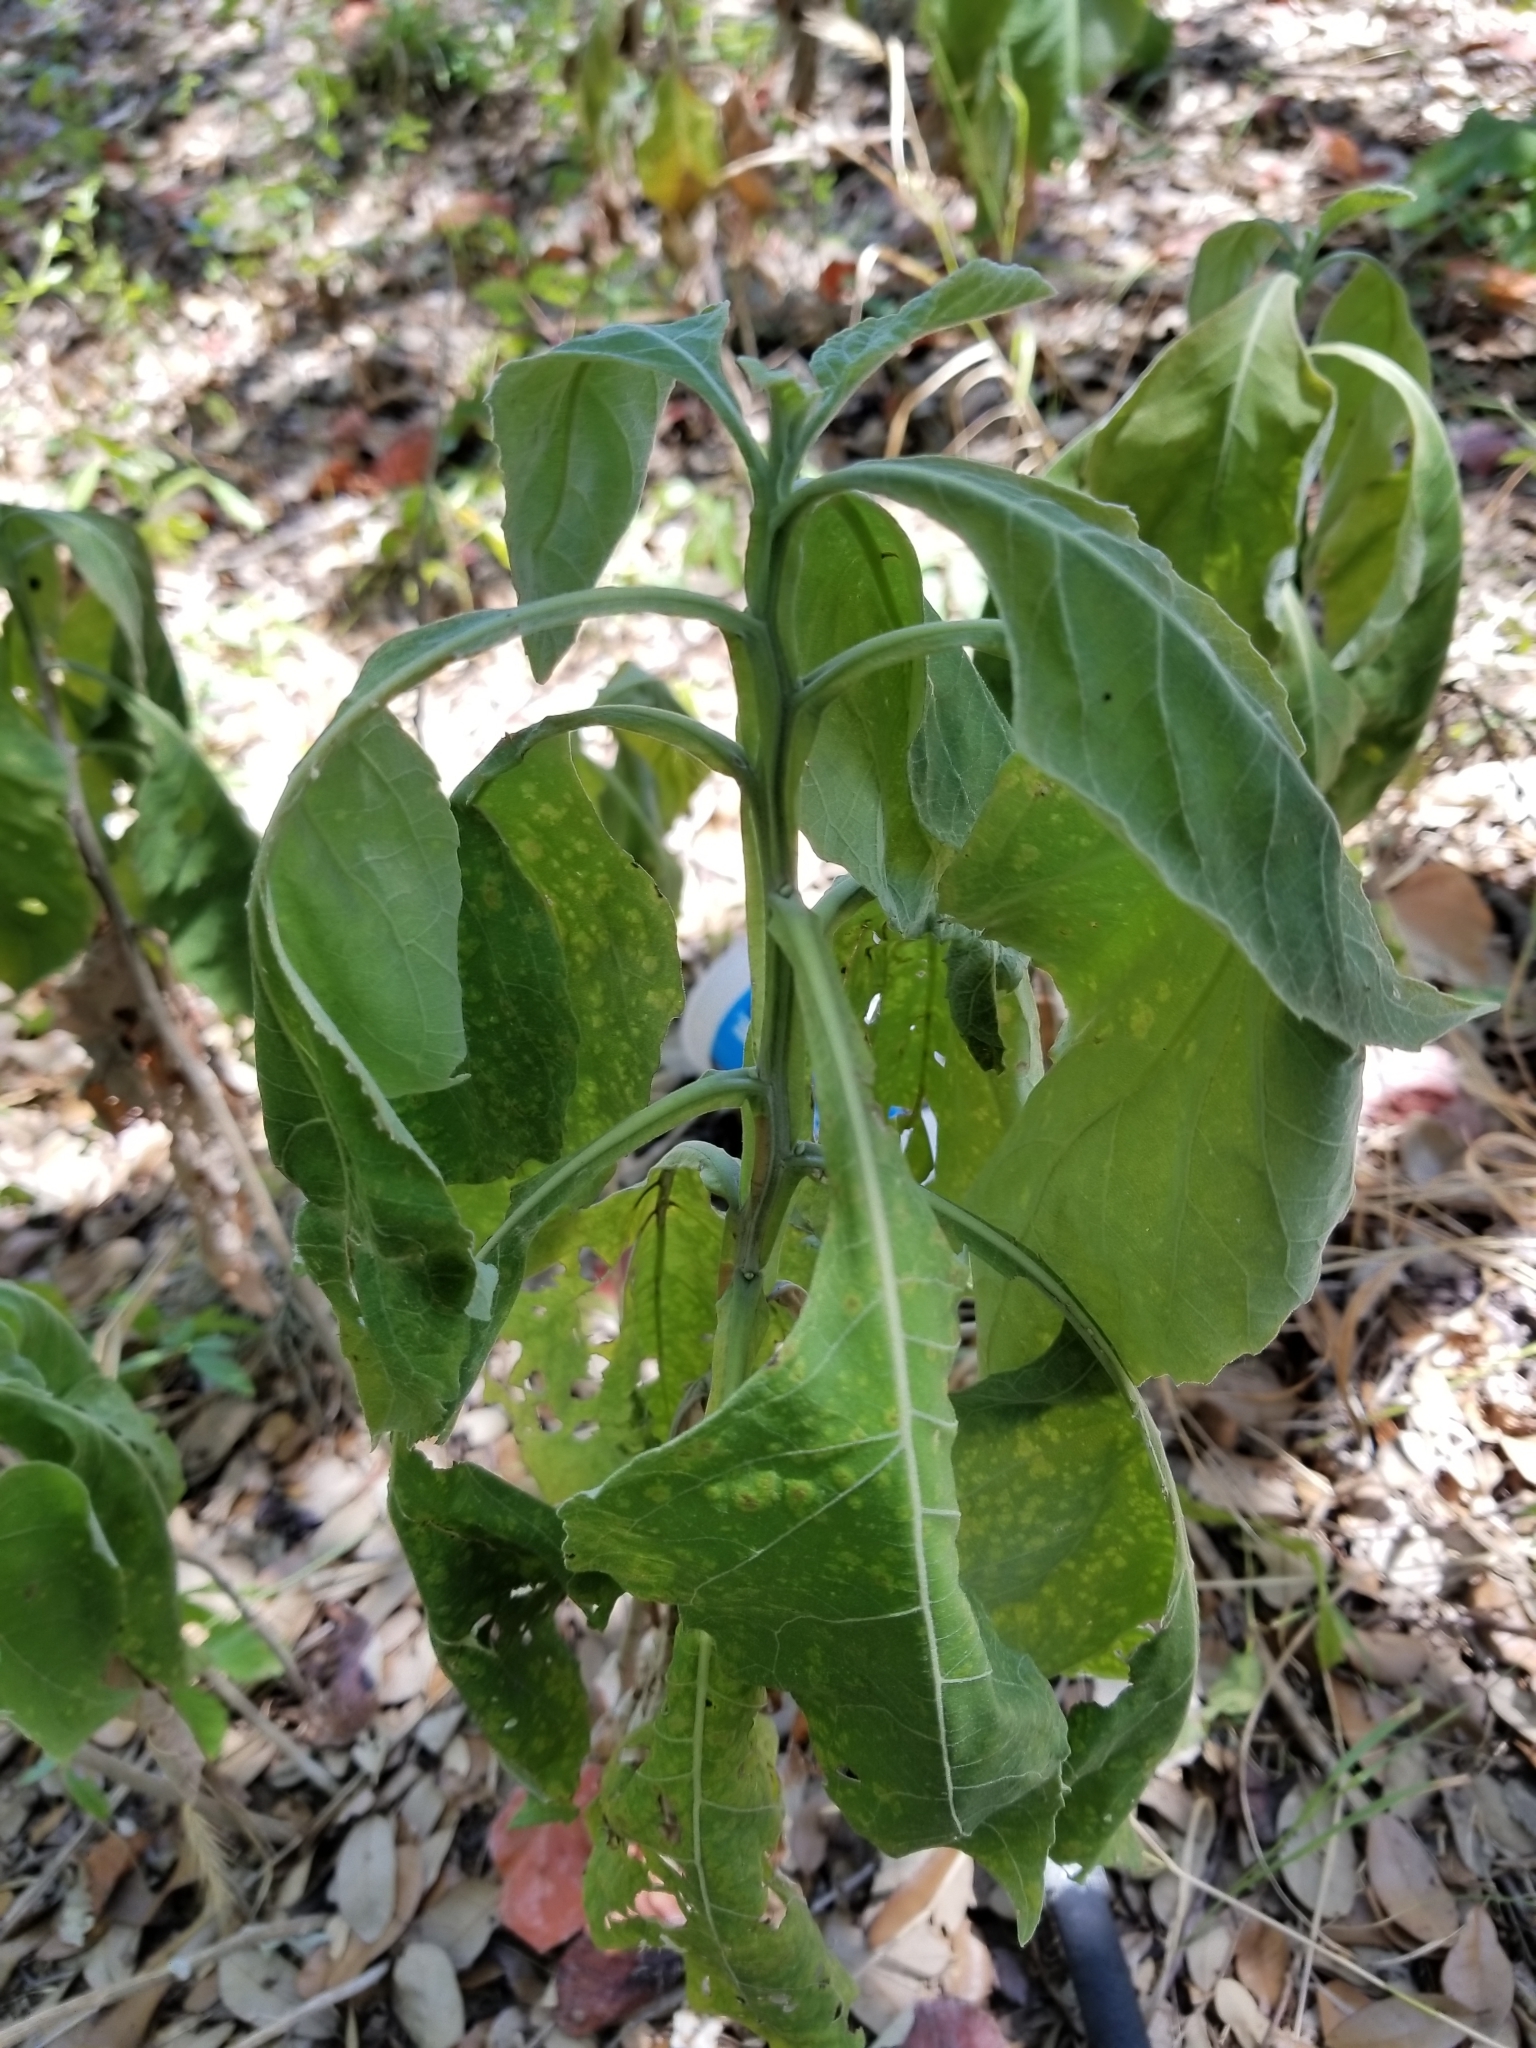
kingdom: Plantae
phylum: Tracheophyta
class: Magnoliopsida
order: Asterales
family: Asteraceae
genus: Verbesina
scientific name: Verbesina virginica
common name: Frostweed
